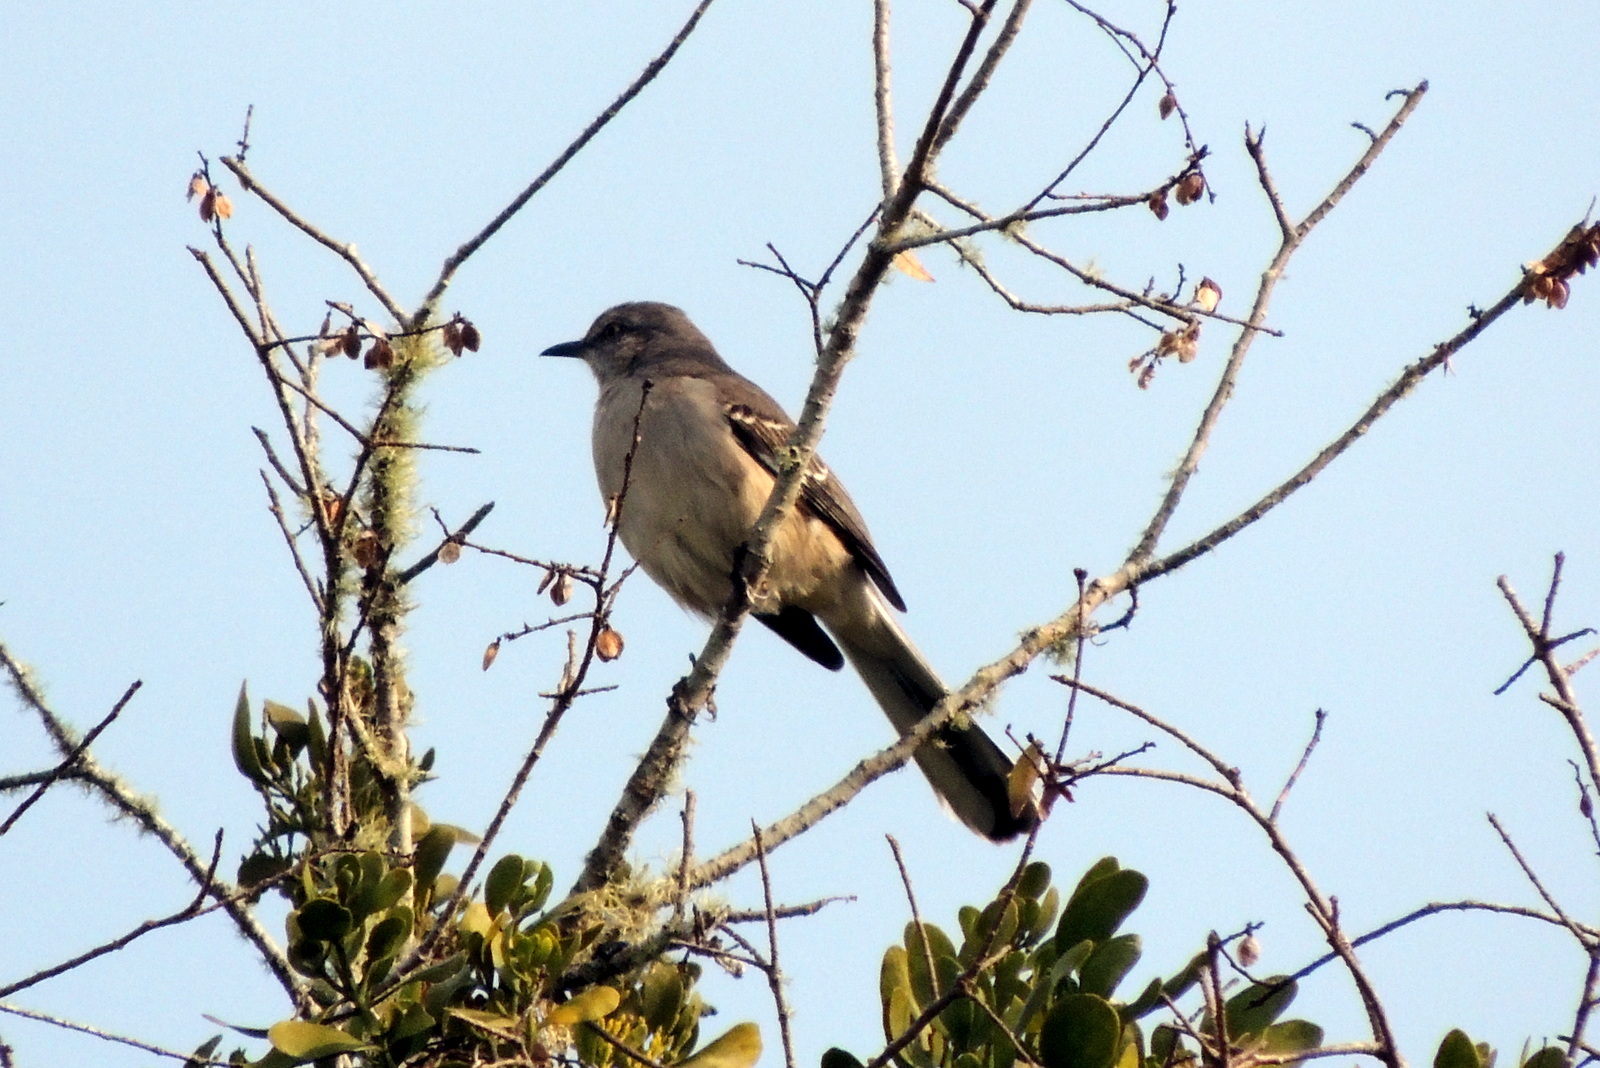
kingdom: Animalia
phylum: Chordata
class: Aves
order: Passeriformes
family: Mimidae
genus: Mimus
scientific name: Mimus polyglottos
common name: Northern mockingbird
